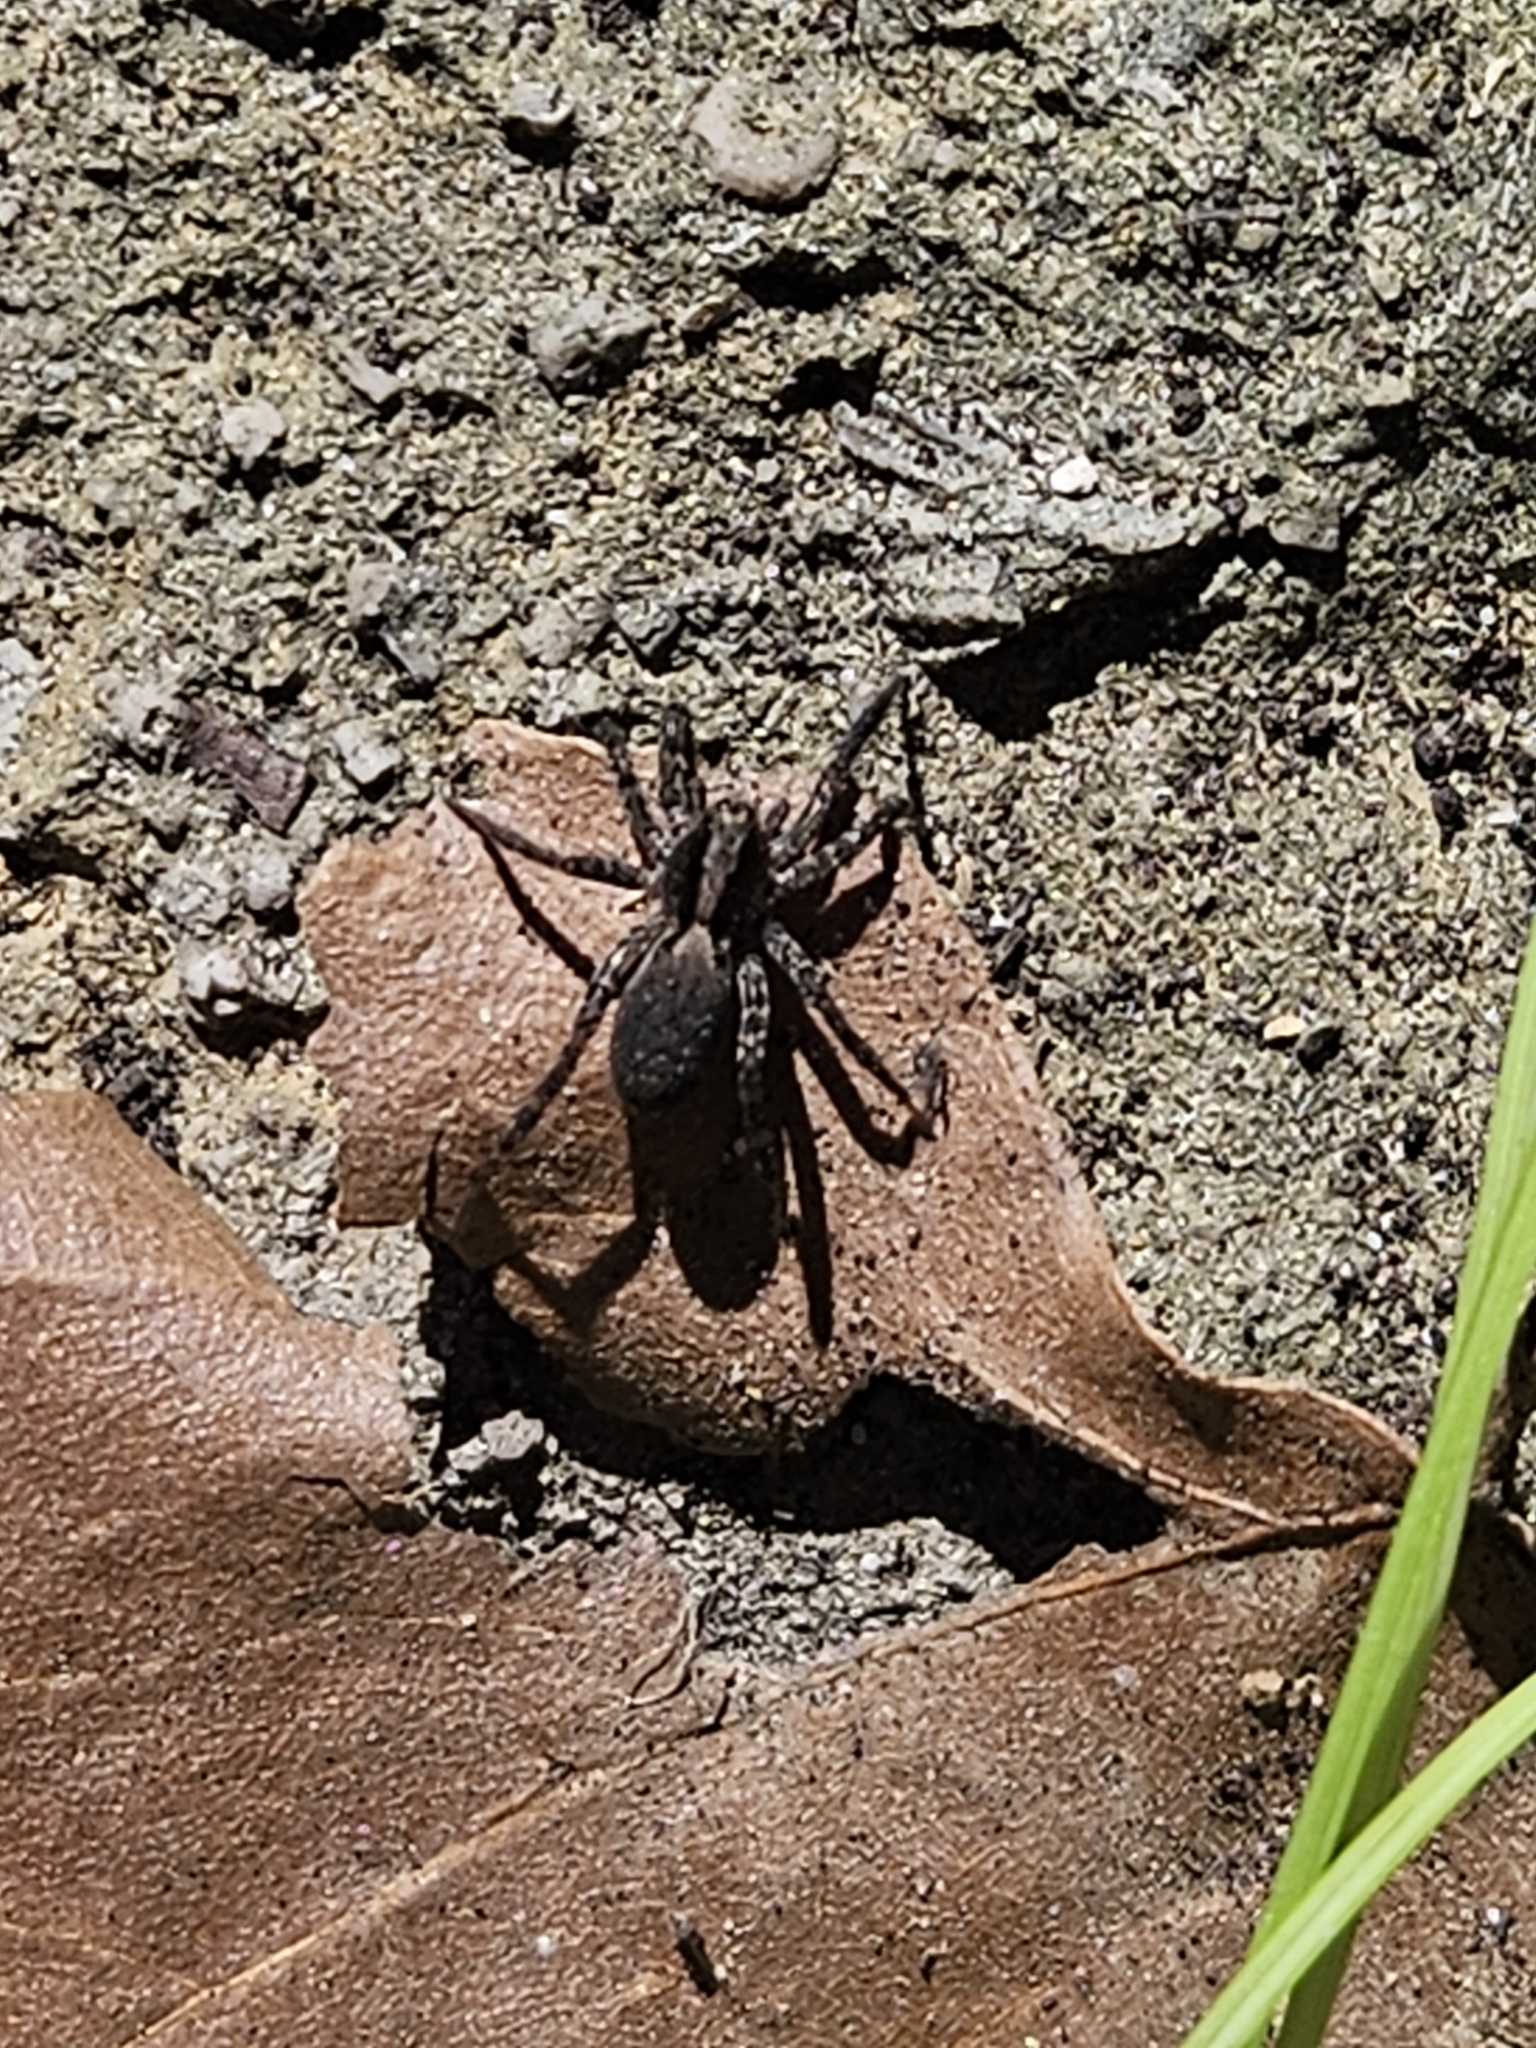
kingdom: Animalia
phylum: Arthropoda
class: Arachnida
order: Araneae
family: Lycosidae
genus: Tigrosa
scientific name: Tigrosa georgicola
